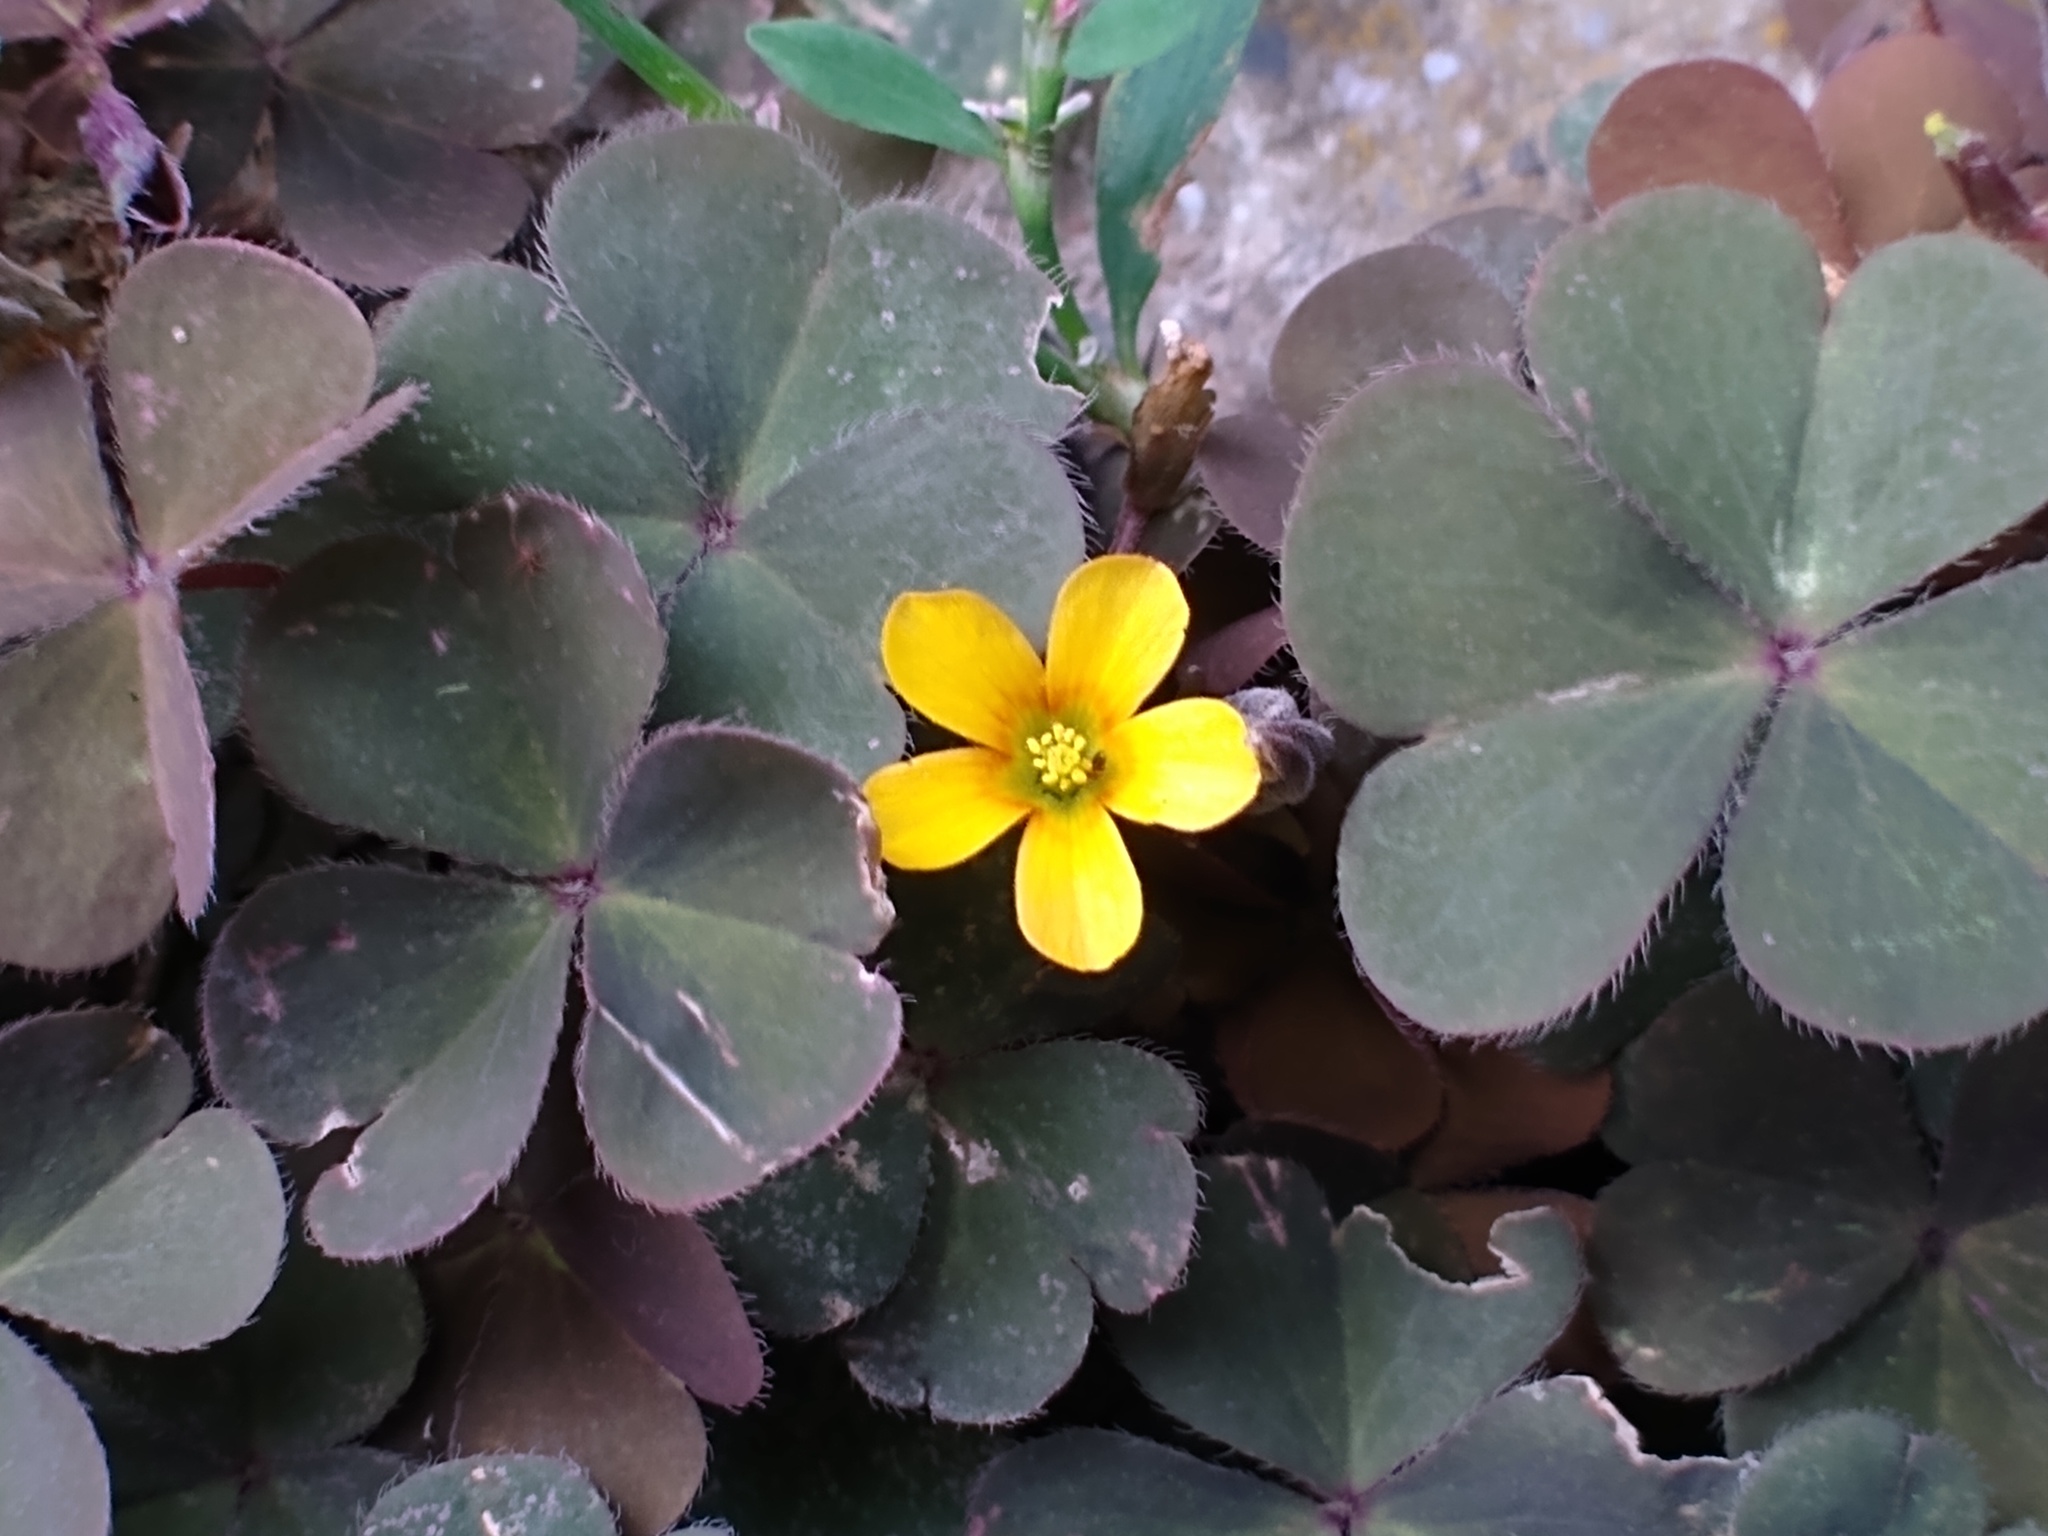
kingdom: Plantae
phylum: Tracheophyta
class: Magnoliopsida
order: Oxalidales
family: Oxalidaceae
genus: Oxalis
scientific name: Oxalis corniculata
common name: Procumbent yellow-sorrel
